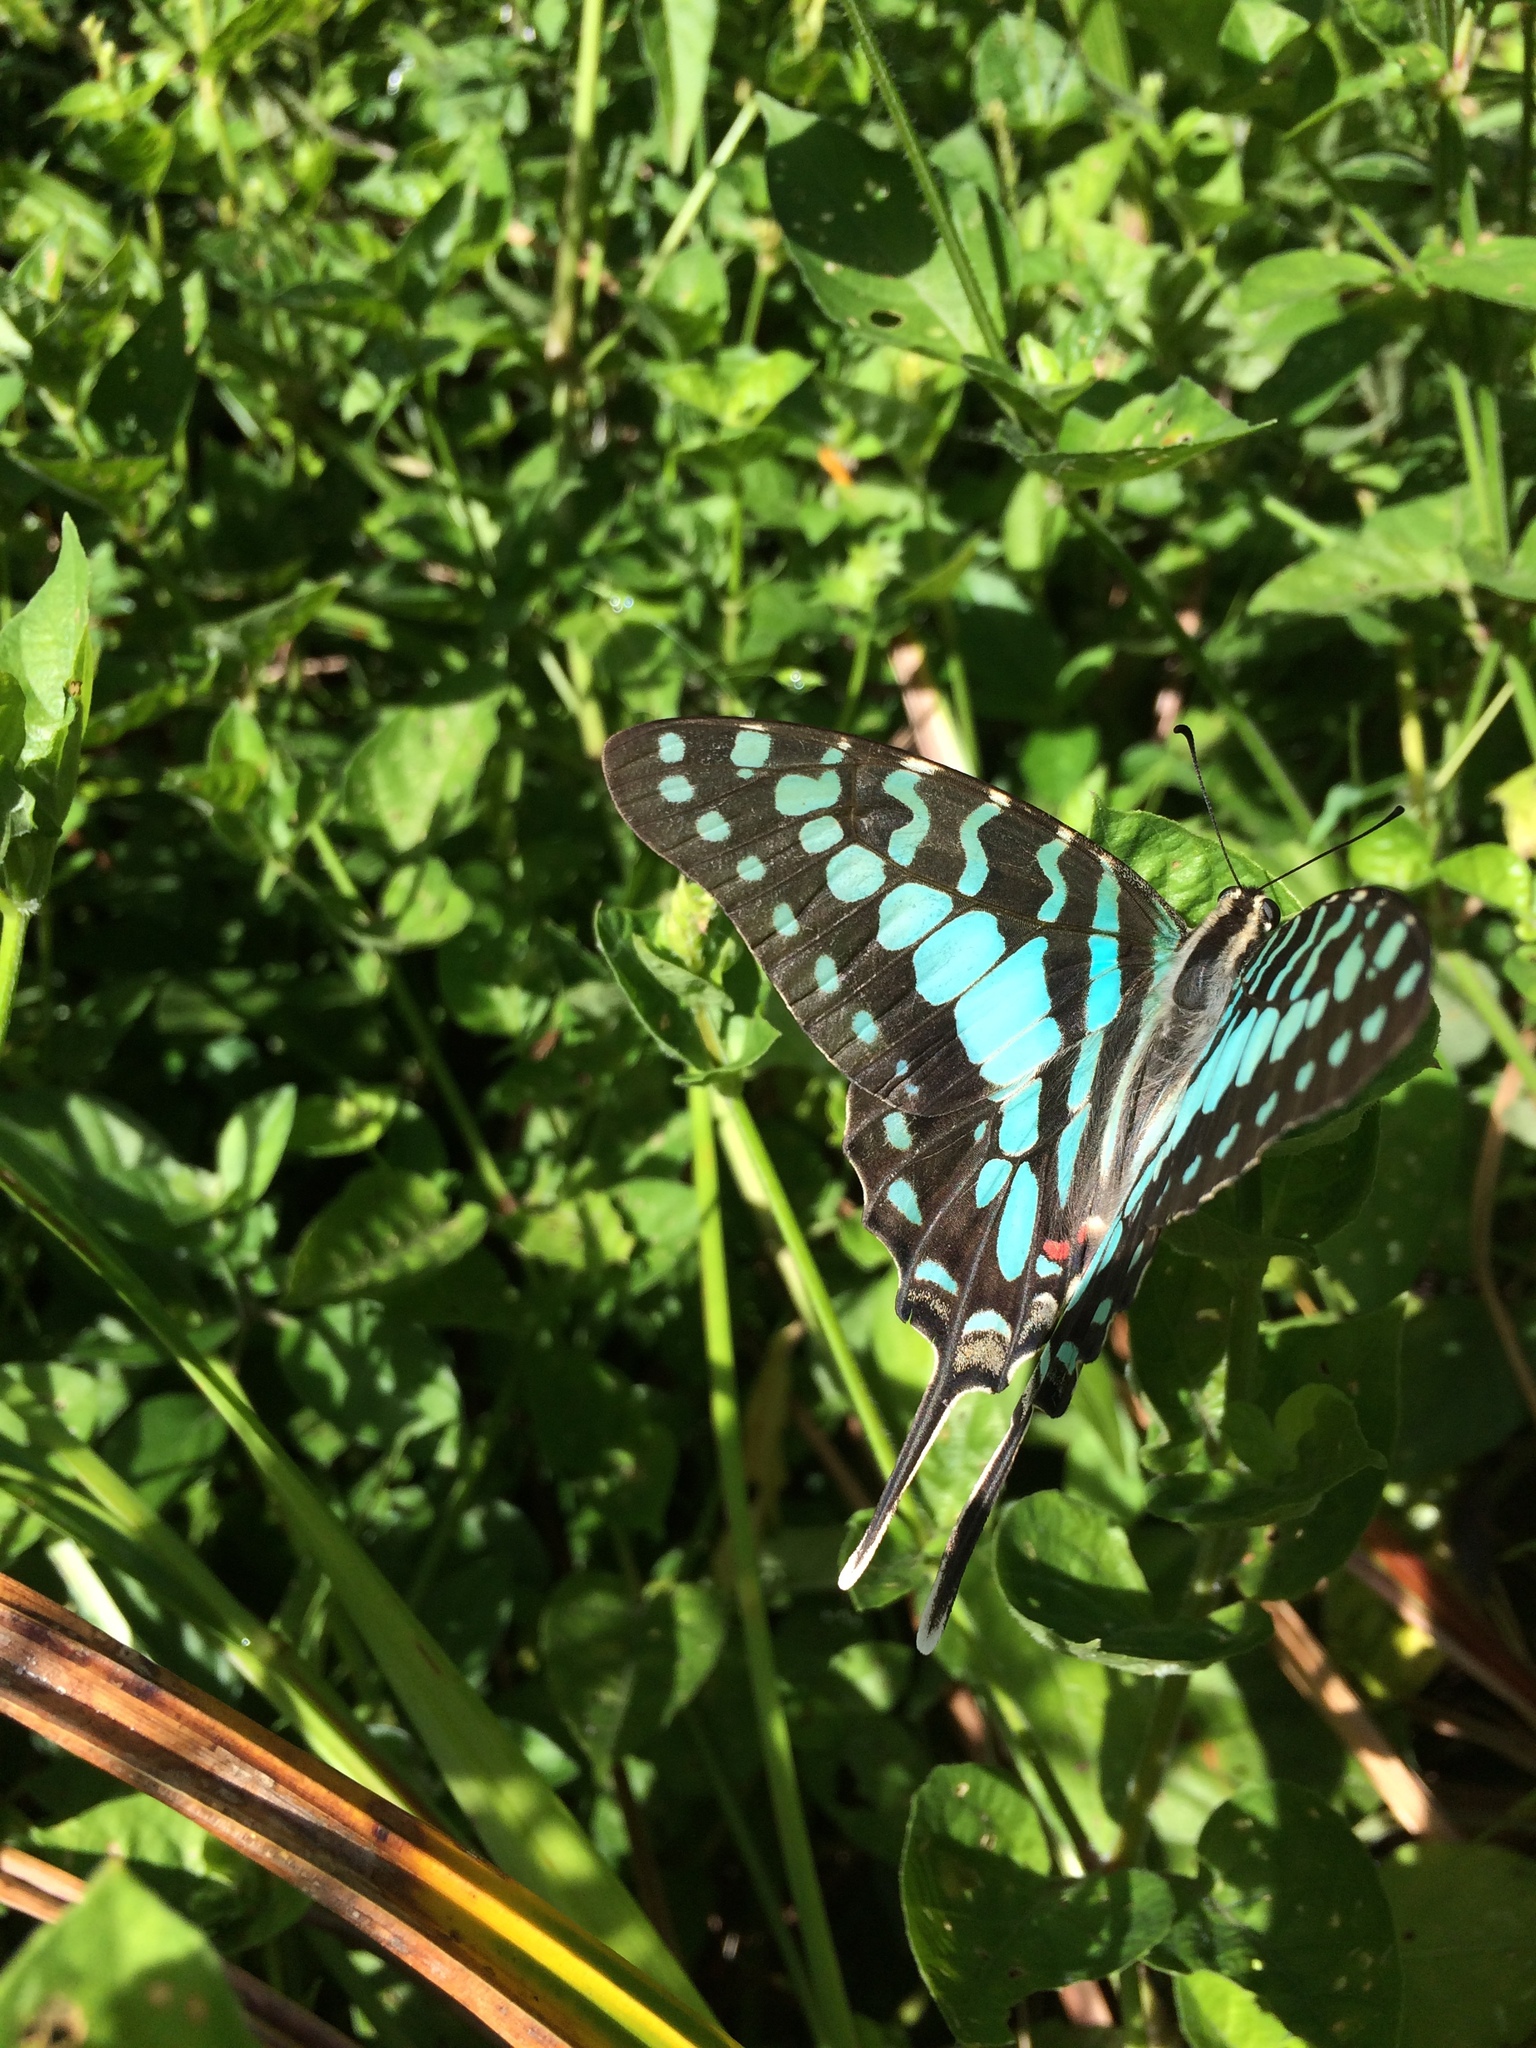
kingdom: Animalia
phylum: Arthropoda
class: Insecta
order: Lepidoptera
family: Papilionidae
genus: Graphium
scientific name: Graphium antheus
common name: Large striped swordtail
